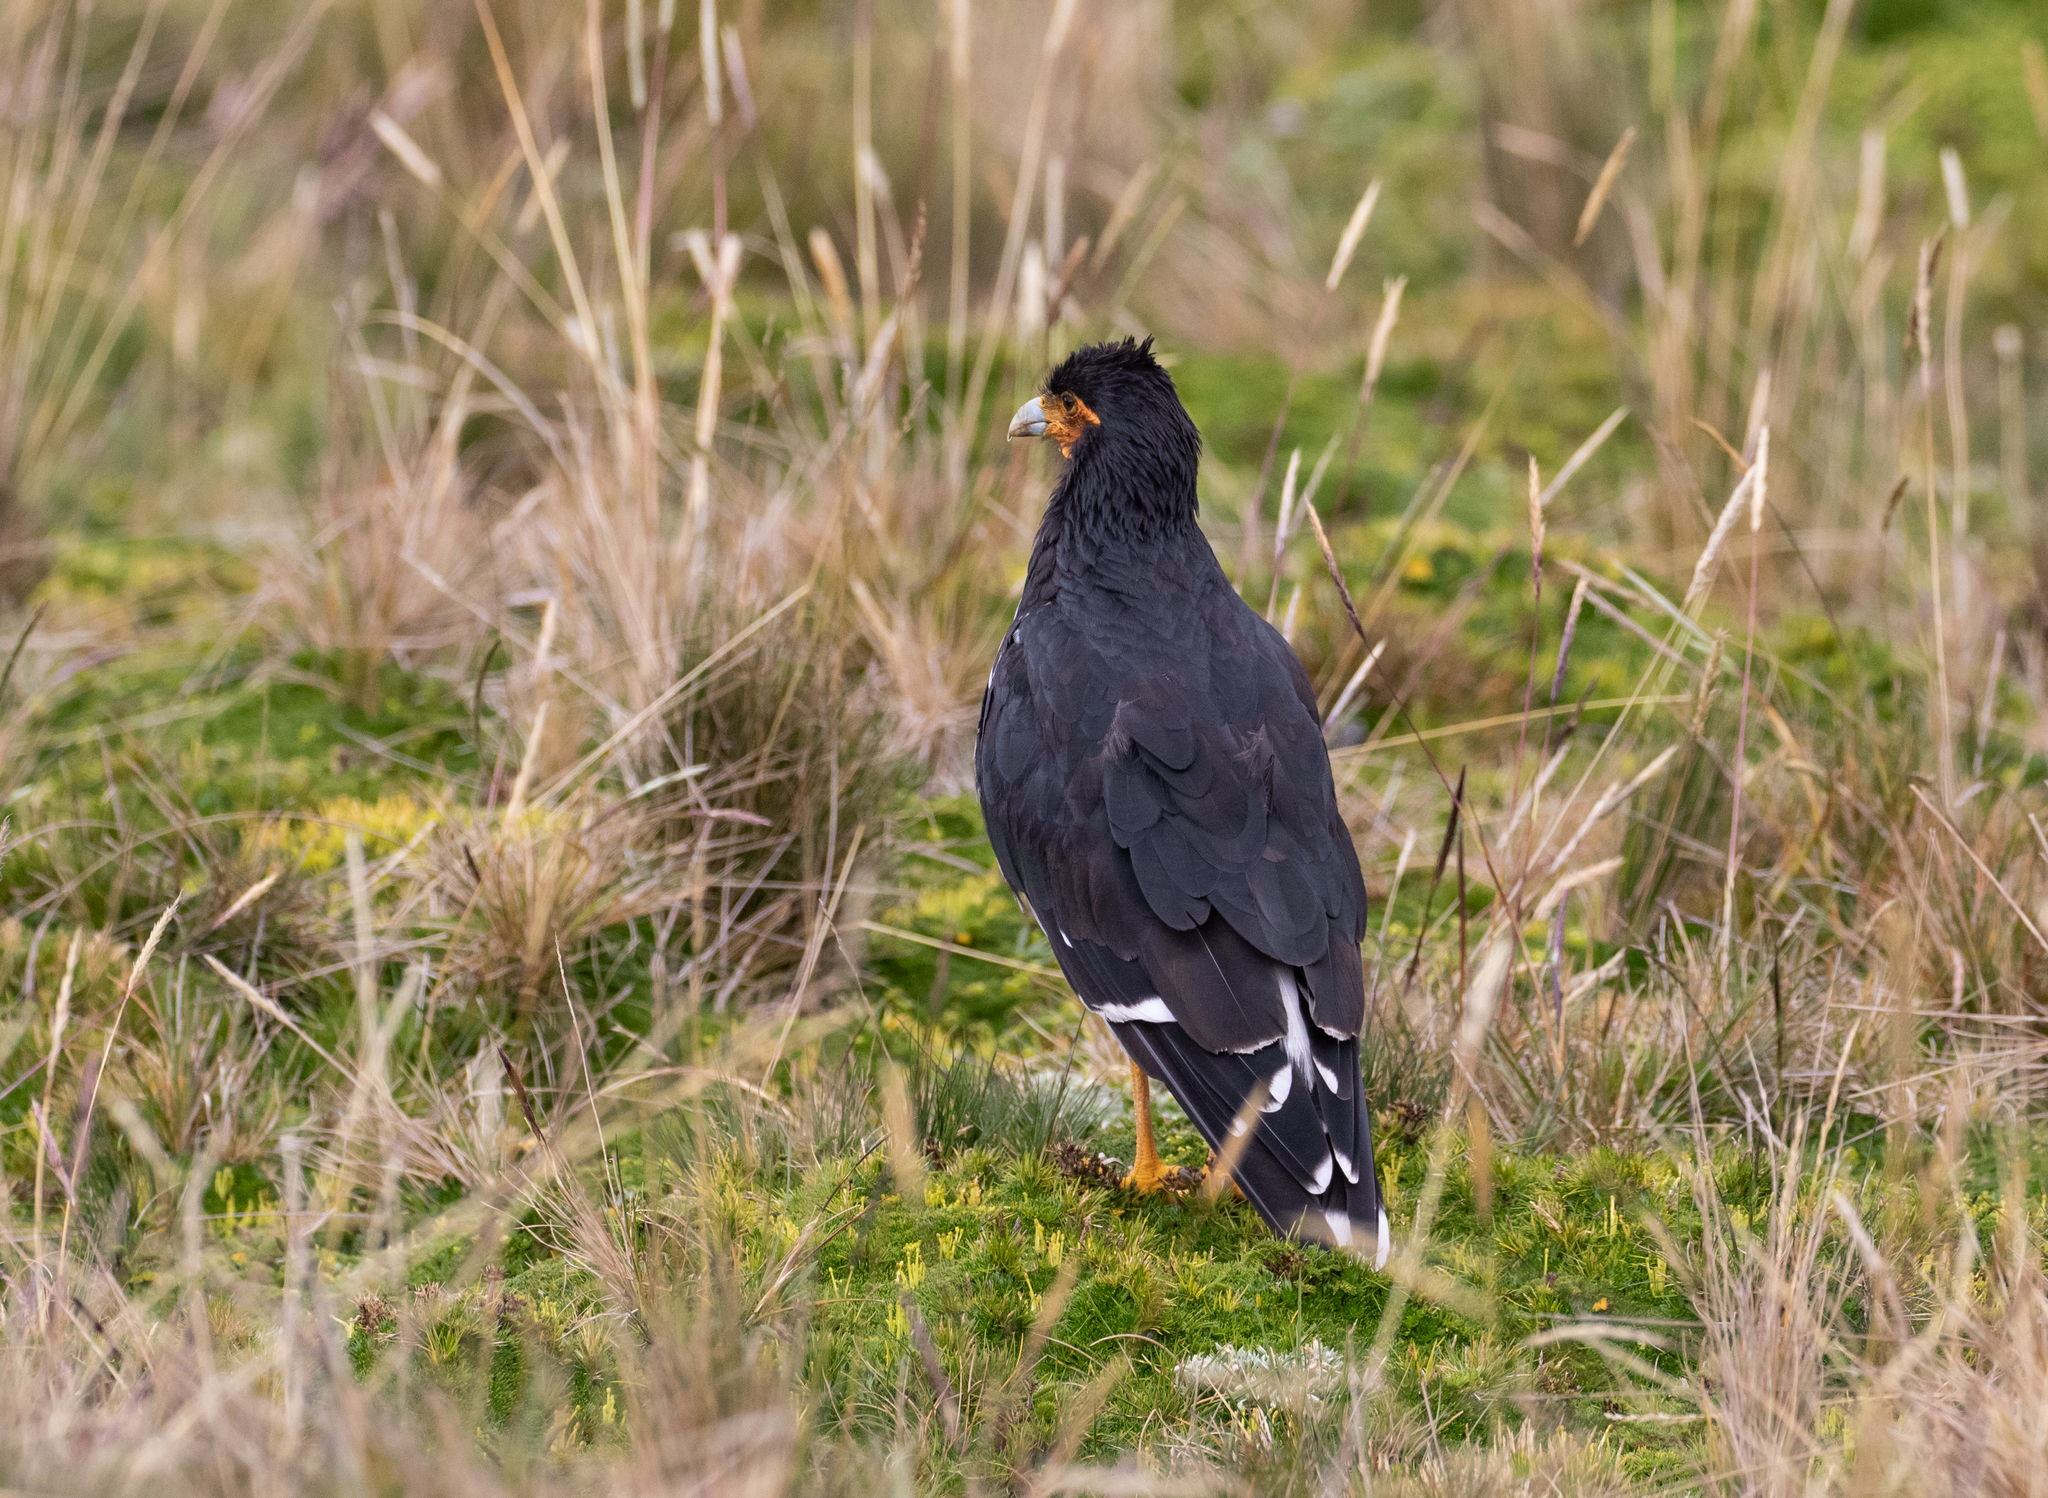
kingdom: Animalia
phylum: Chordata
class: Aves
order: Falconiformes
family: Falconidae
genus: Daptrius
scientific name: Daptrius
